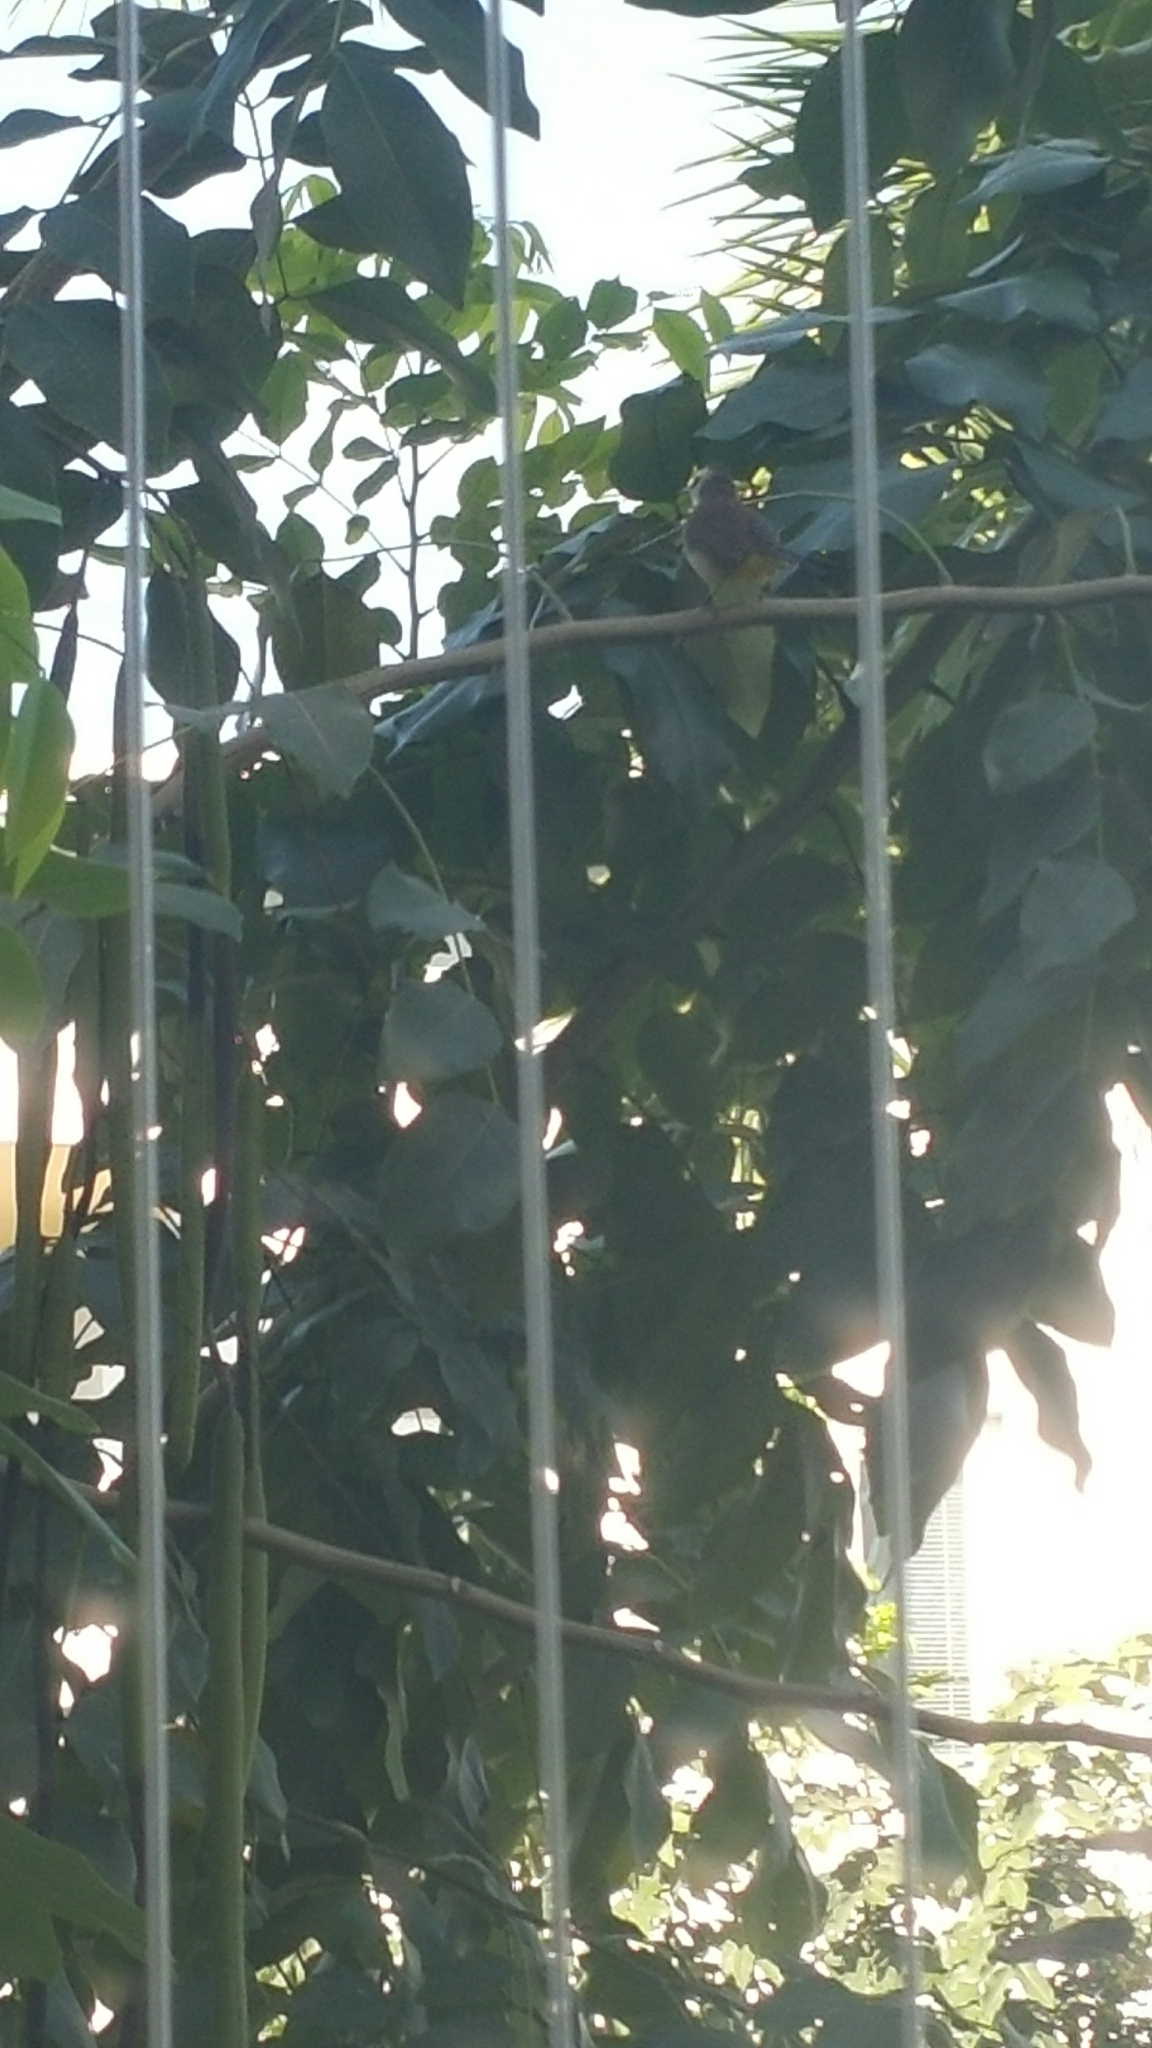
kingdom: Animalia
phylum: Chordata
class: Aves
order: Passeriformes
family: Pycnonotidae
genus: Pycnonotus
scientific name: Pycnonotus goiavier
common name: Yellow-vented bulbul
